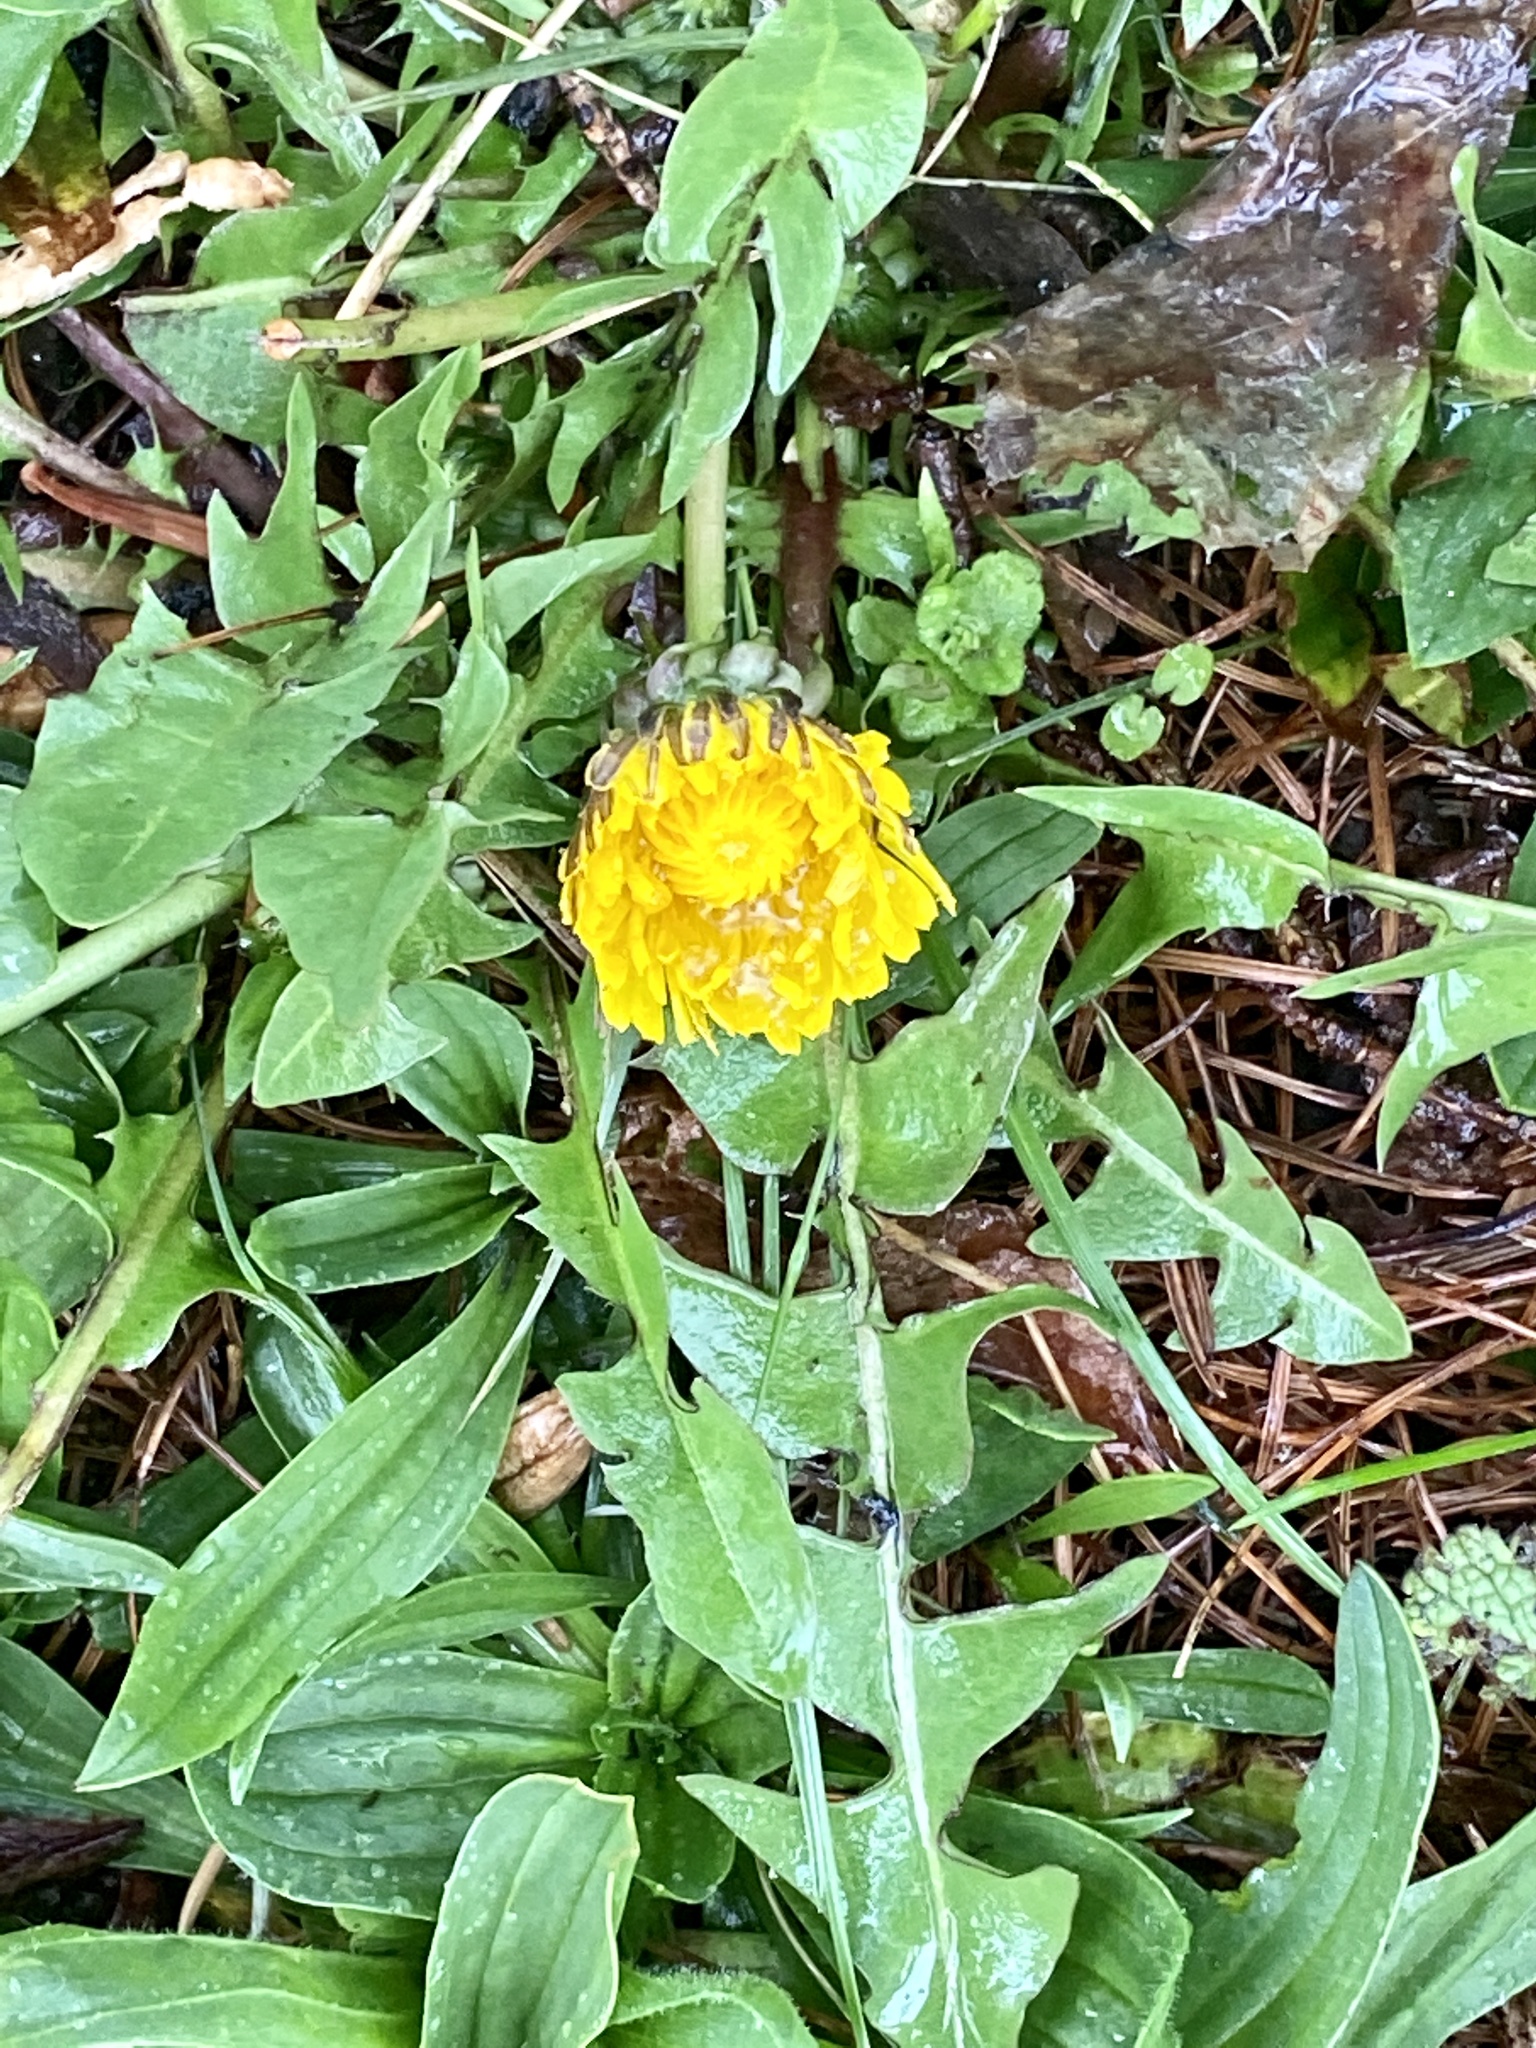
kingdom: Plantae
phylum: Tracheophyta
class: Magnoliopsida
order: Asterales
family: Asteraceae
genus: Taraxacum
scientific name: Taraxacum
